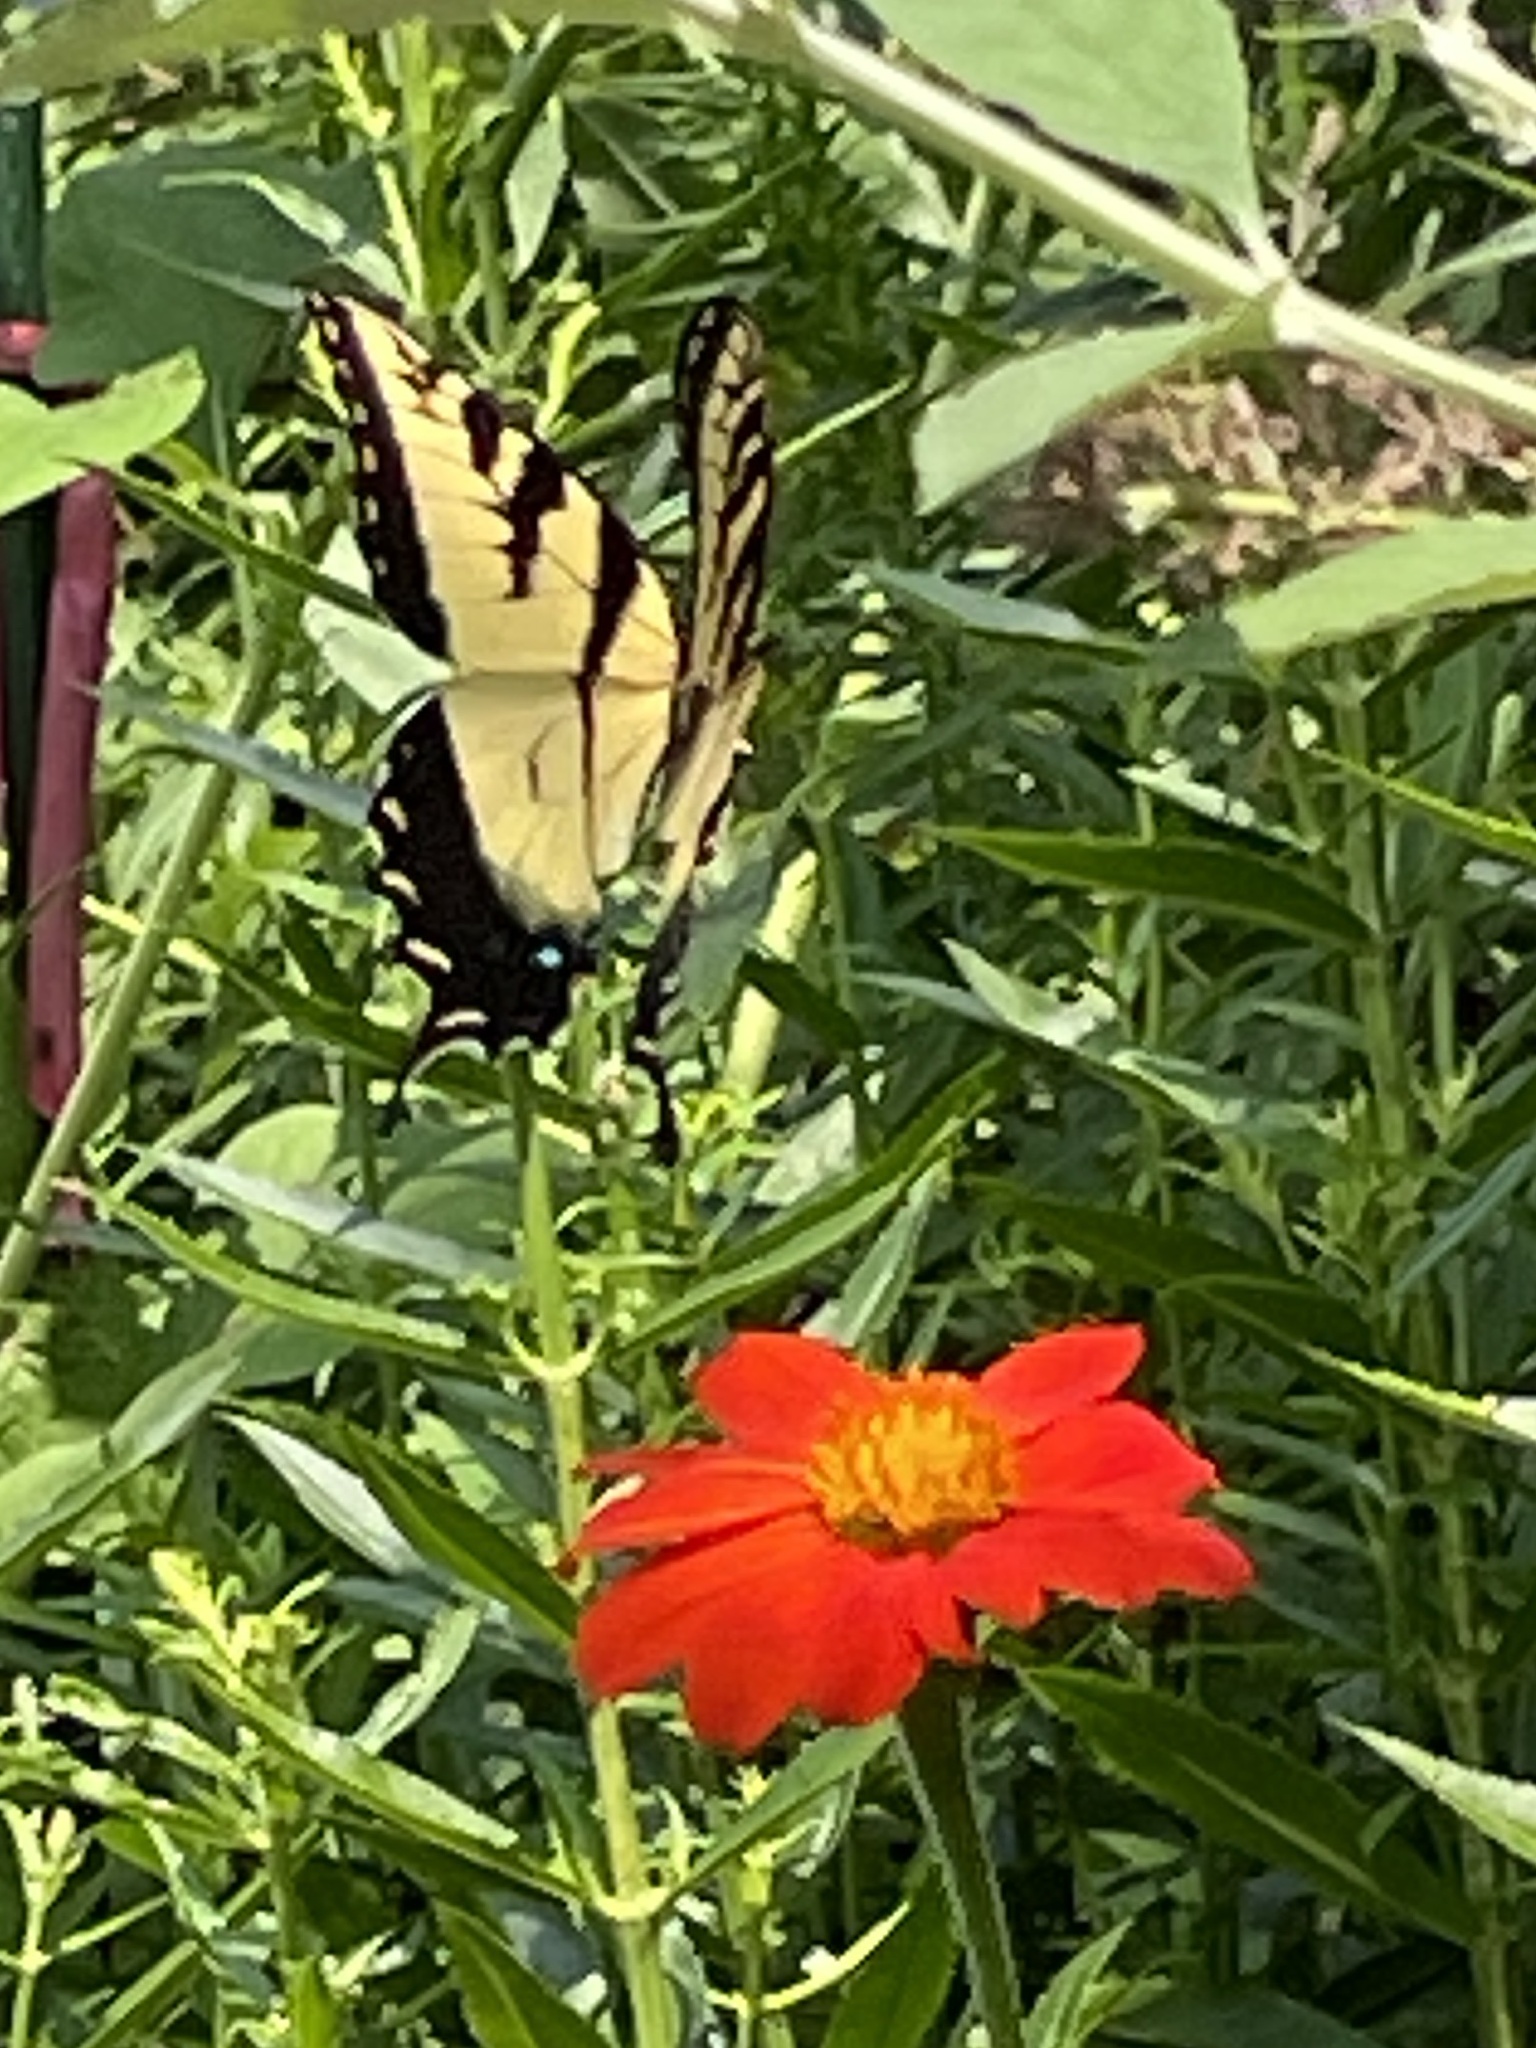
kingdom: Animalia
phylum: Arthropoda
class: Insecta
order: Lepidoptera
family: Papilionidae
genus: Papilio
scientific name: Papilio glaucus
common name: Tiger swallowtail
